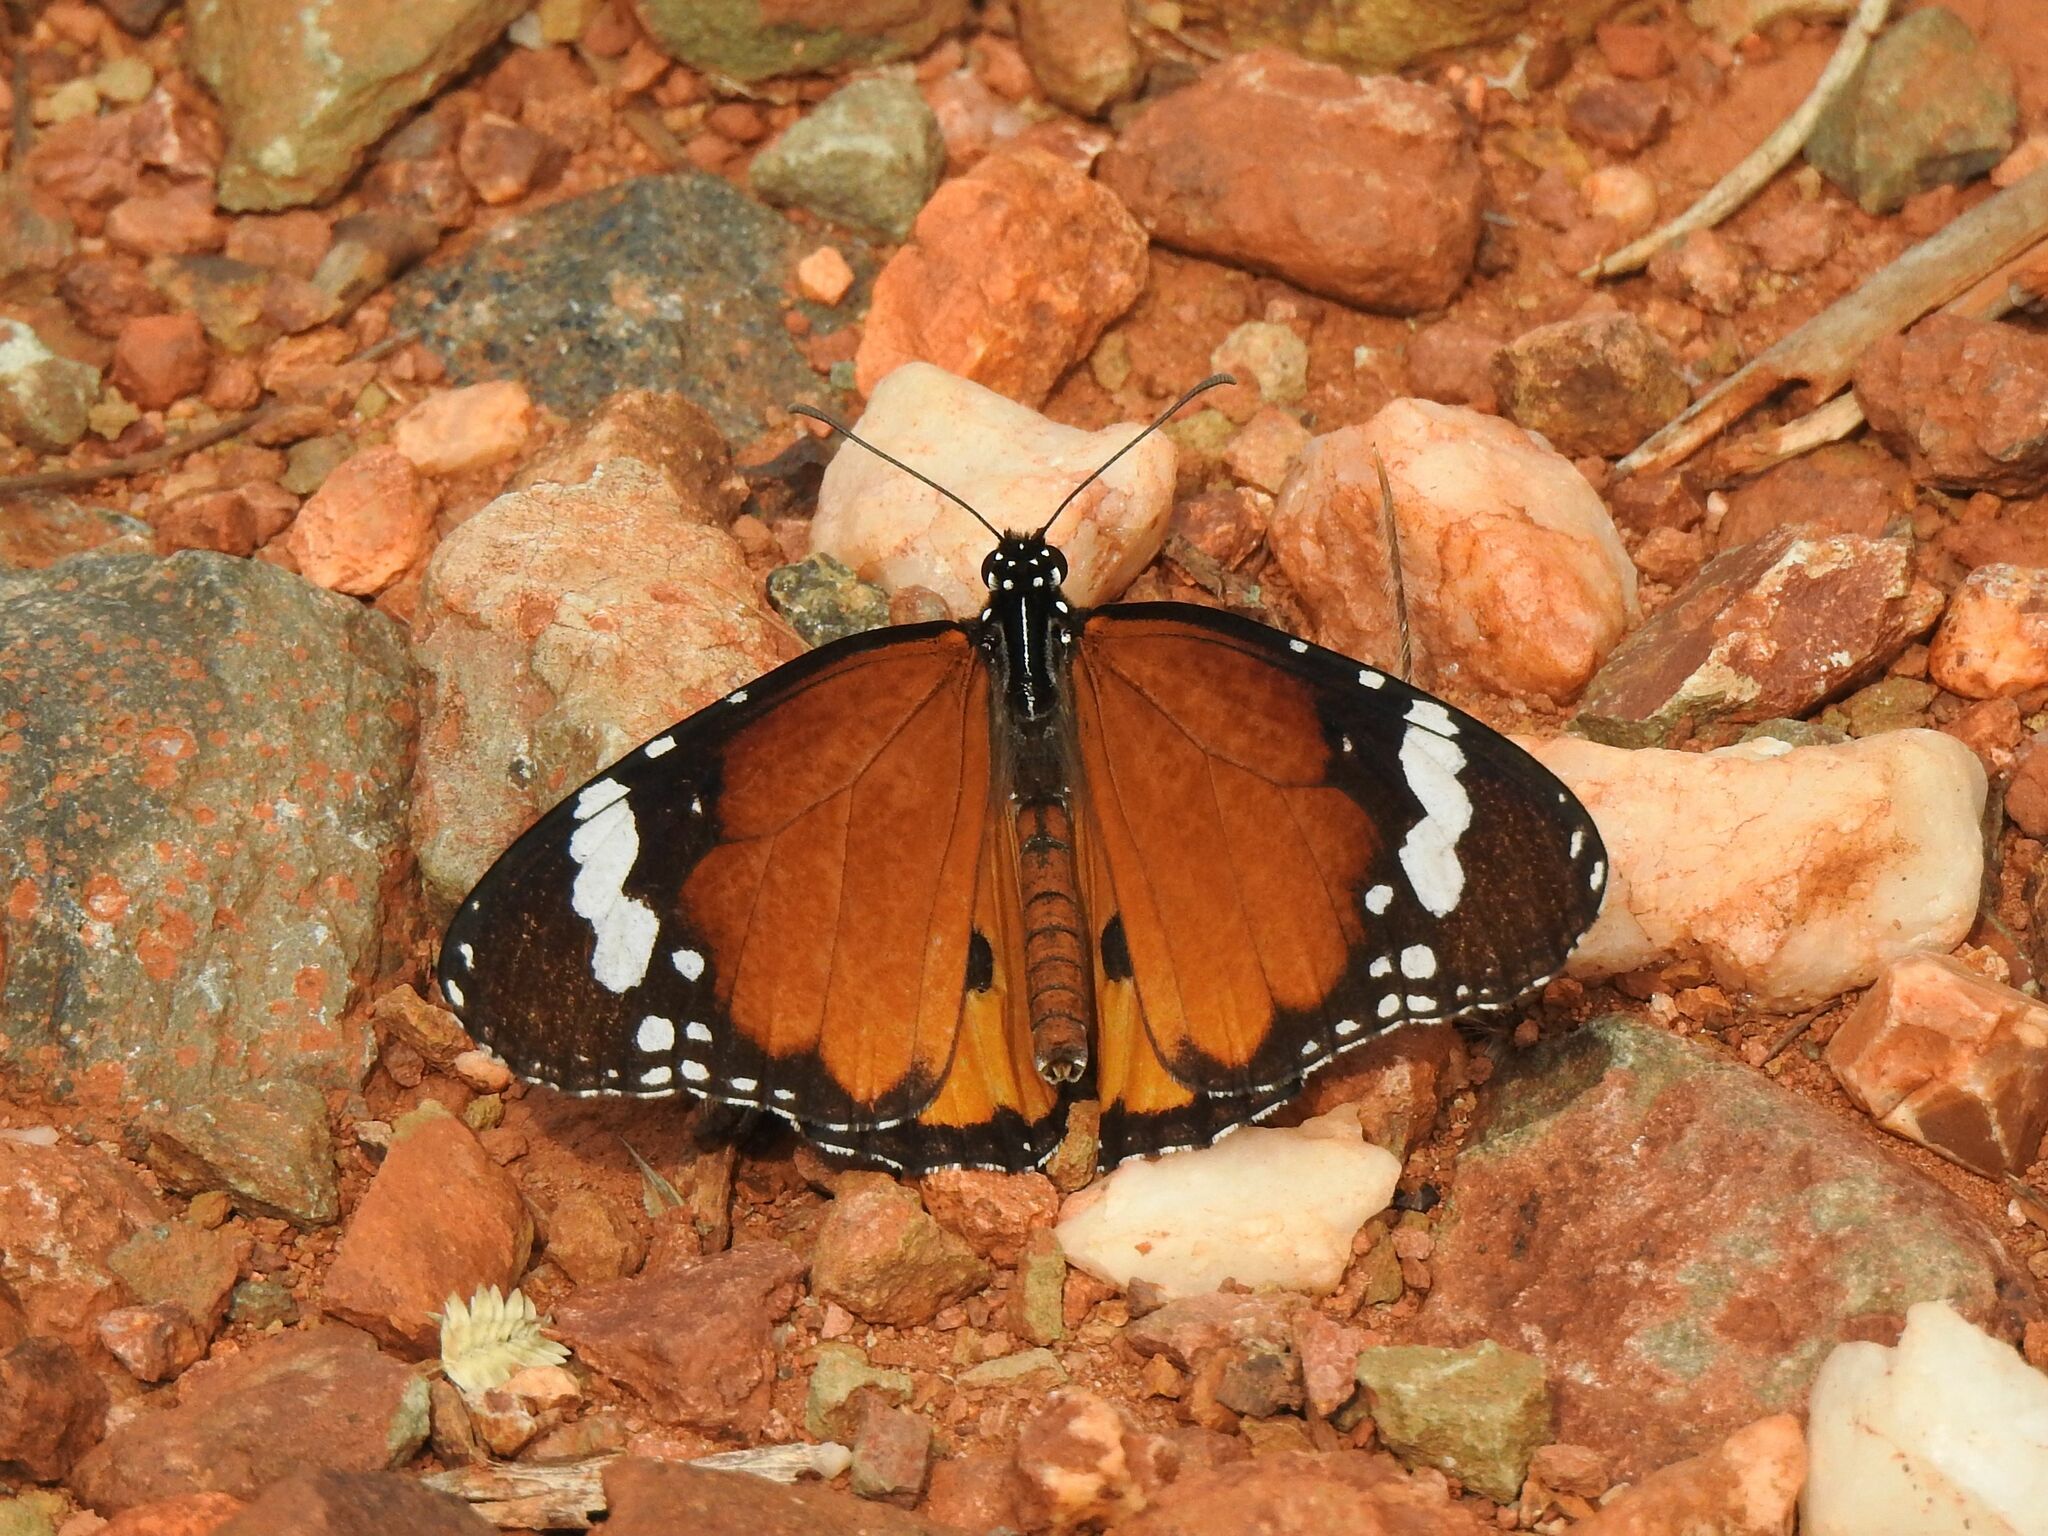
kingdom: Animalia
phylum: Arthropoda
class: Insecta
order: Lepidoptera
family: Nymphalidae
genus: Danaus
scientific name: Danaus chrysippus
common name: Plain tiger
